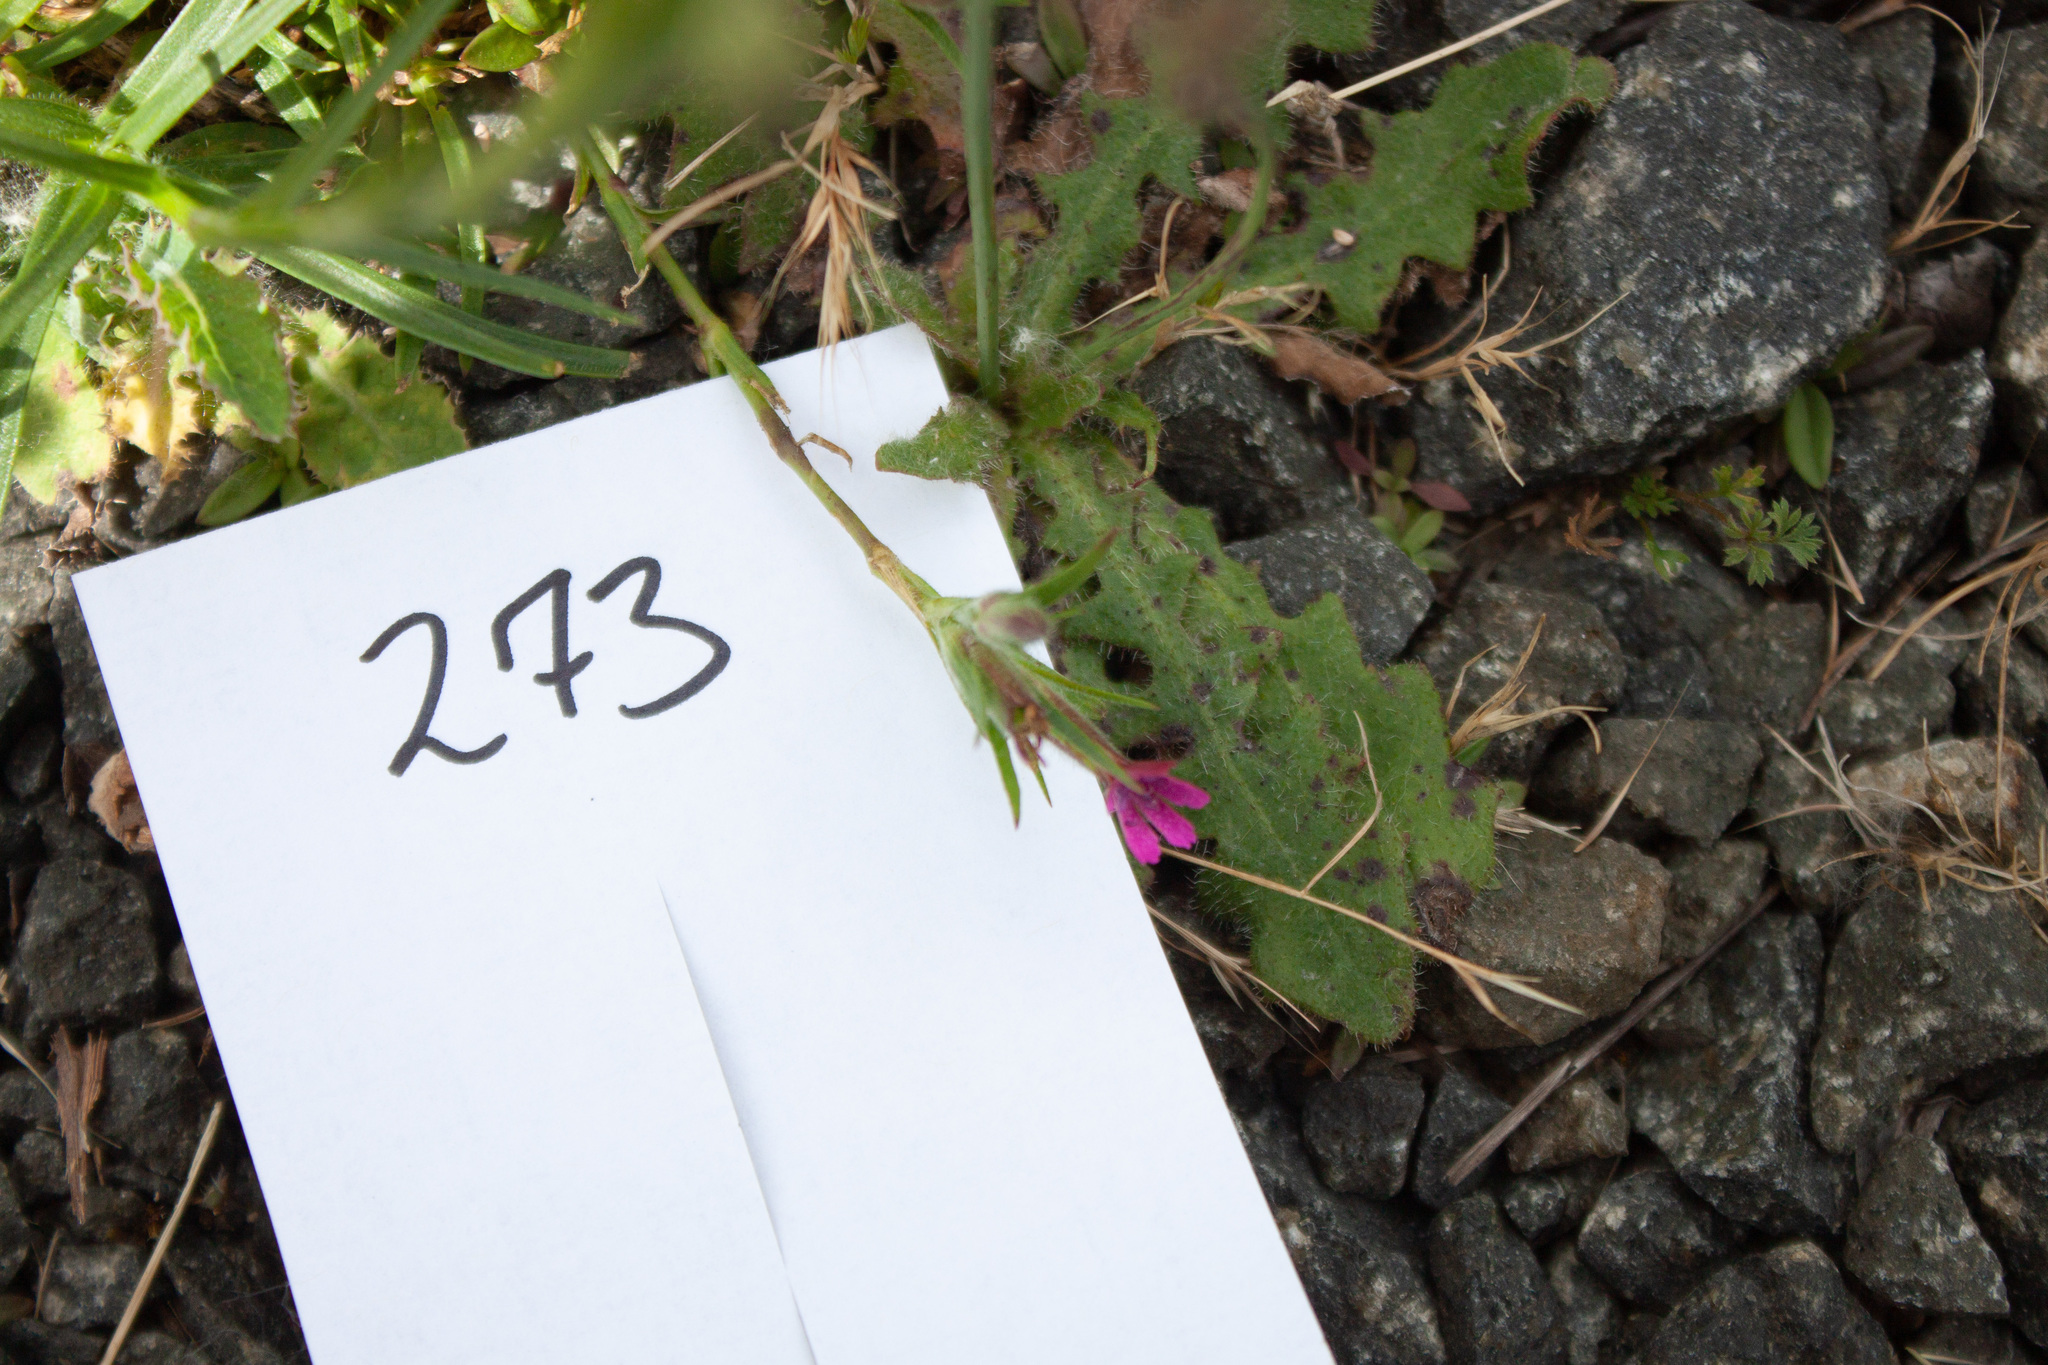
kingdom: Plantae
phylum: Tracheophyta
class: Magnoliopsida
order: Caryophyllales
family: Caryophyllaceae
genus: Dianthus
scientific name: Dianthus armeria
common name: Deptford pink
